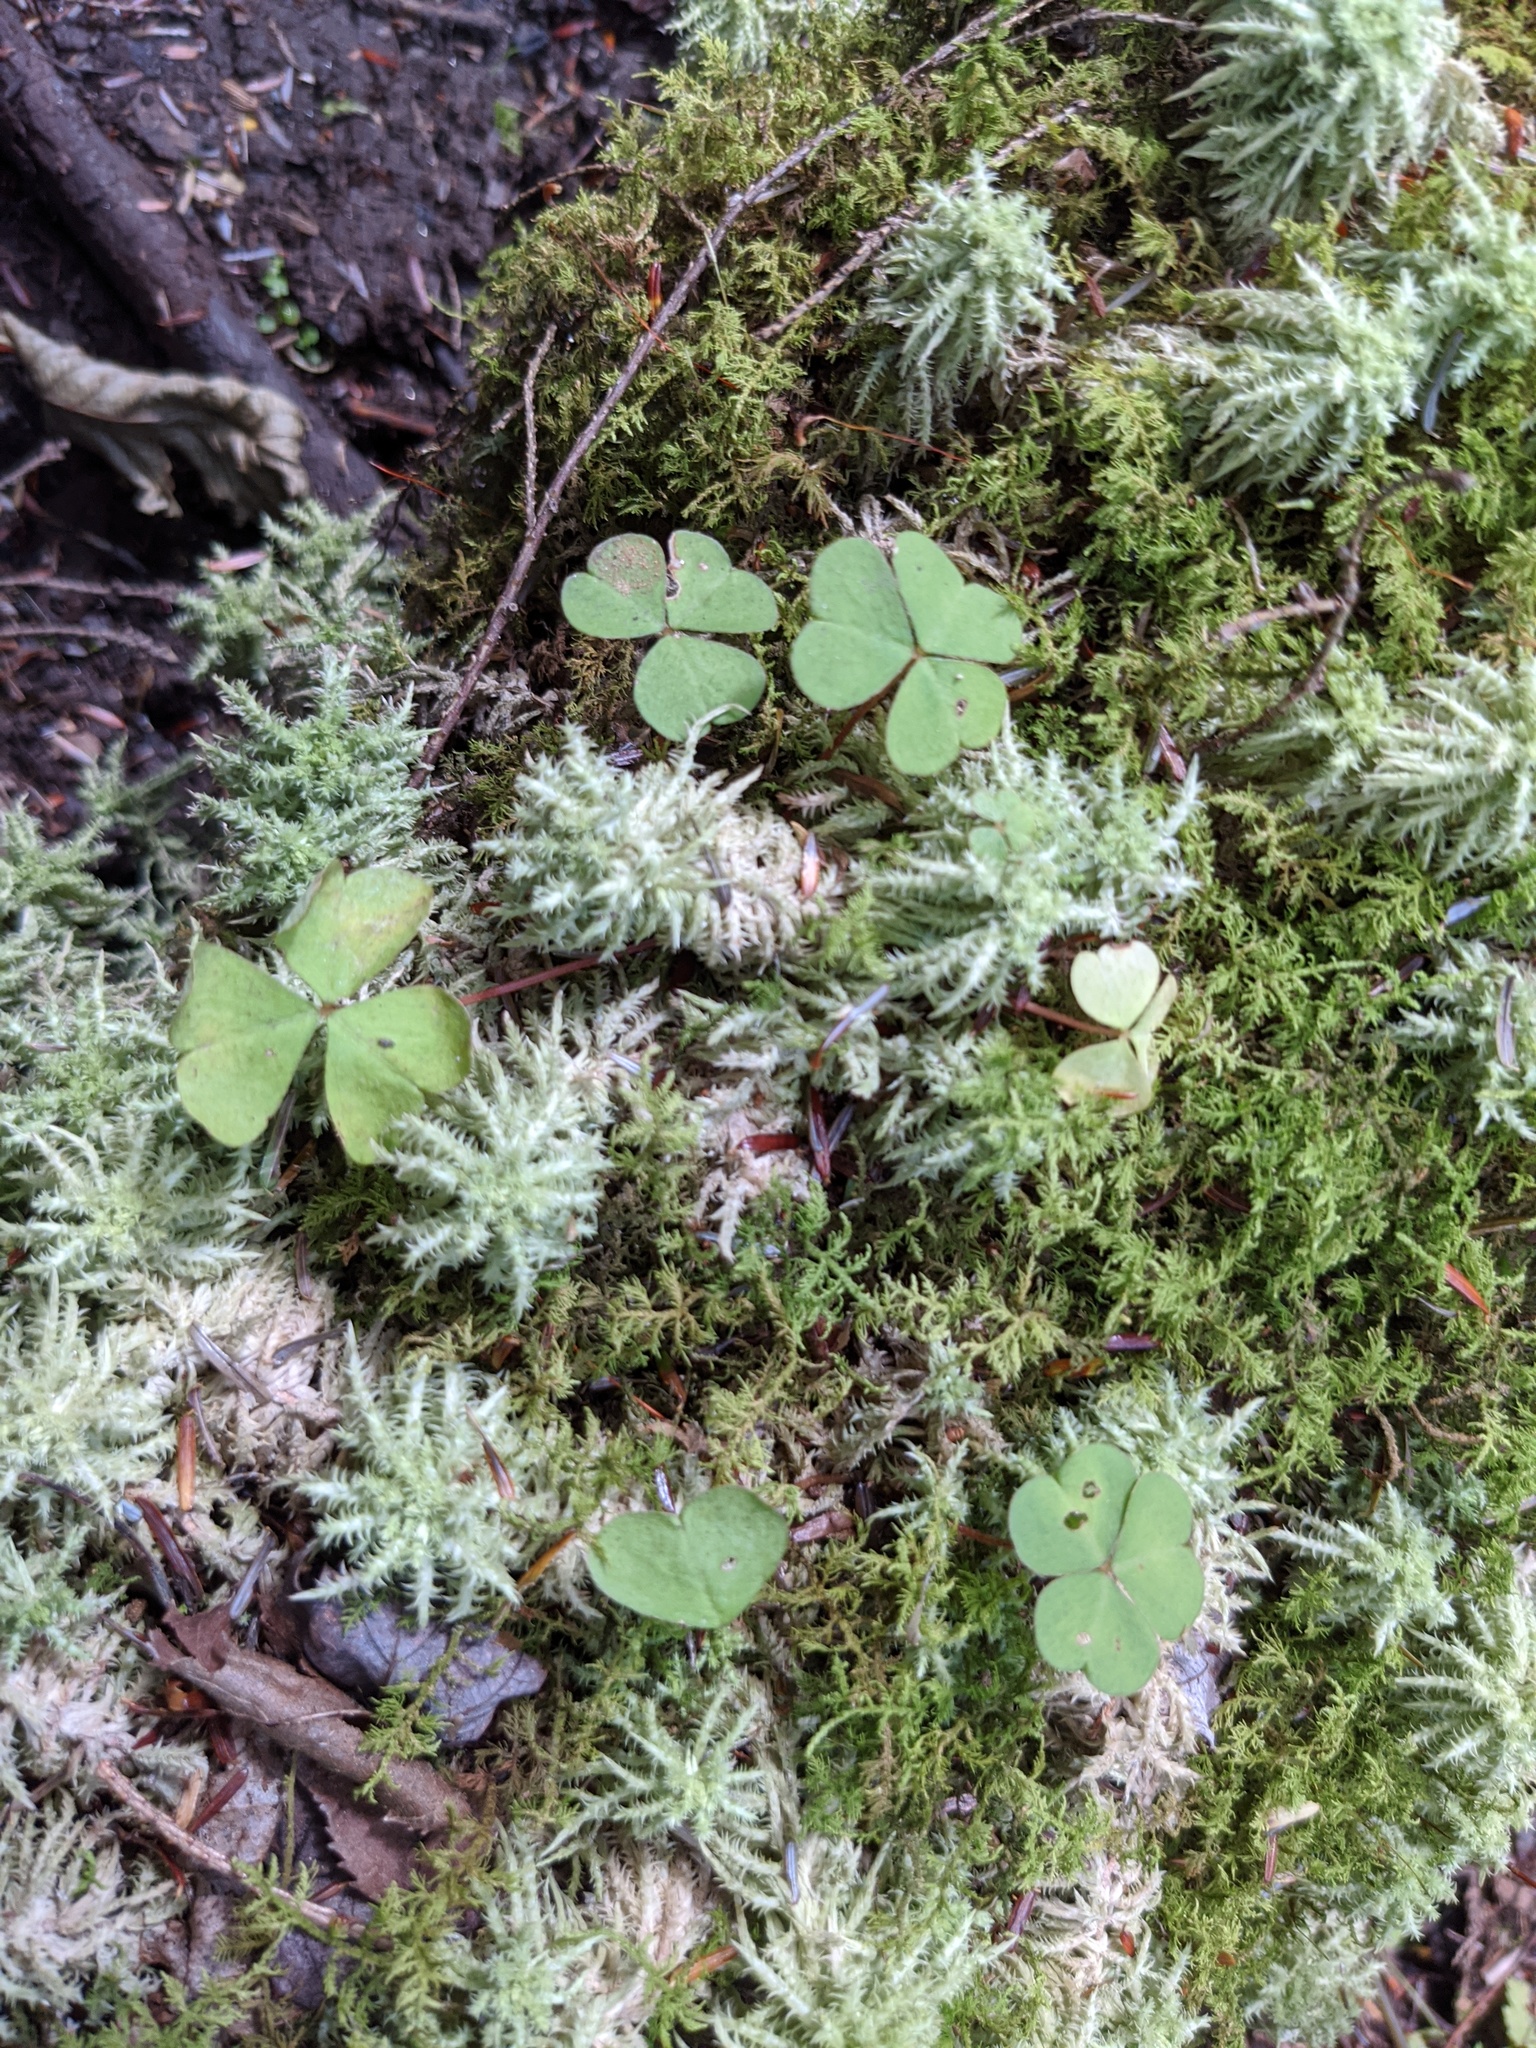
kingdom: Plantae
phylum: Tracheophyta
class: Magnoliopsida
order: Oxalidales
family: Oxalidaceae
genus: Oxalis
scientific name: Oxalis montana
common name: American wood-sorrel
